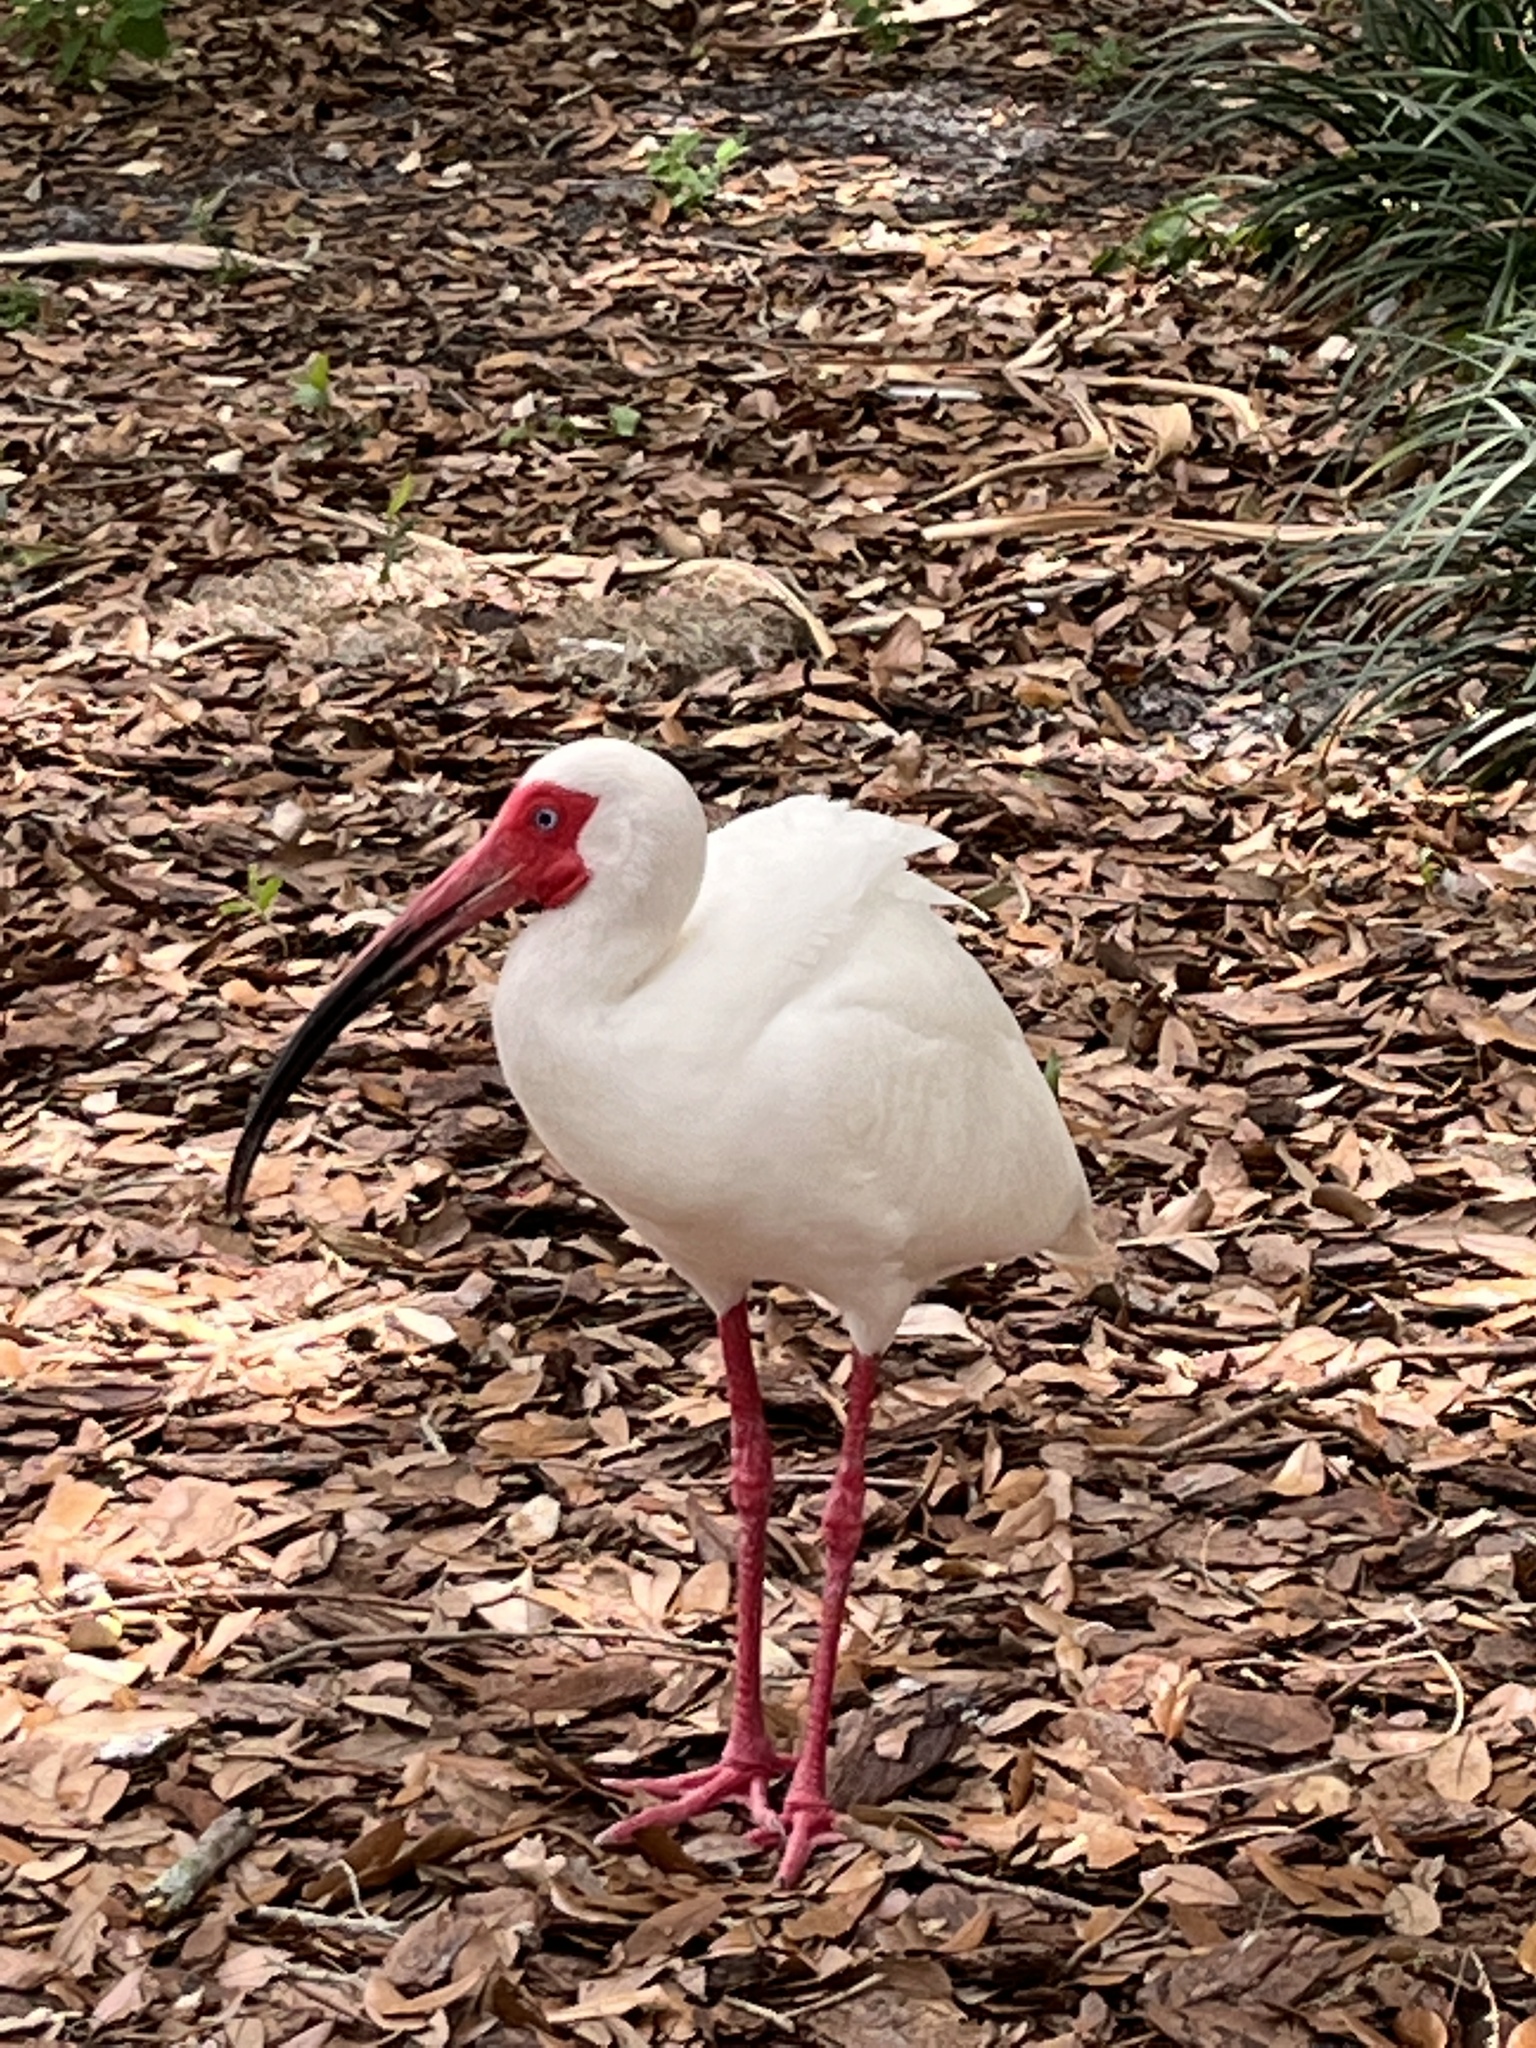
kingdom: Animalia
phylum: Chordata
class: Aves
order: Pelecaniformes
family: Threskiornithidae
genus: Eudocimus
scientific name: Eudocimus albus
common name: White ibis
